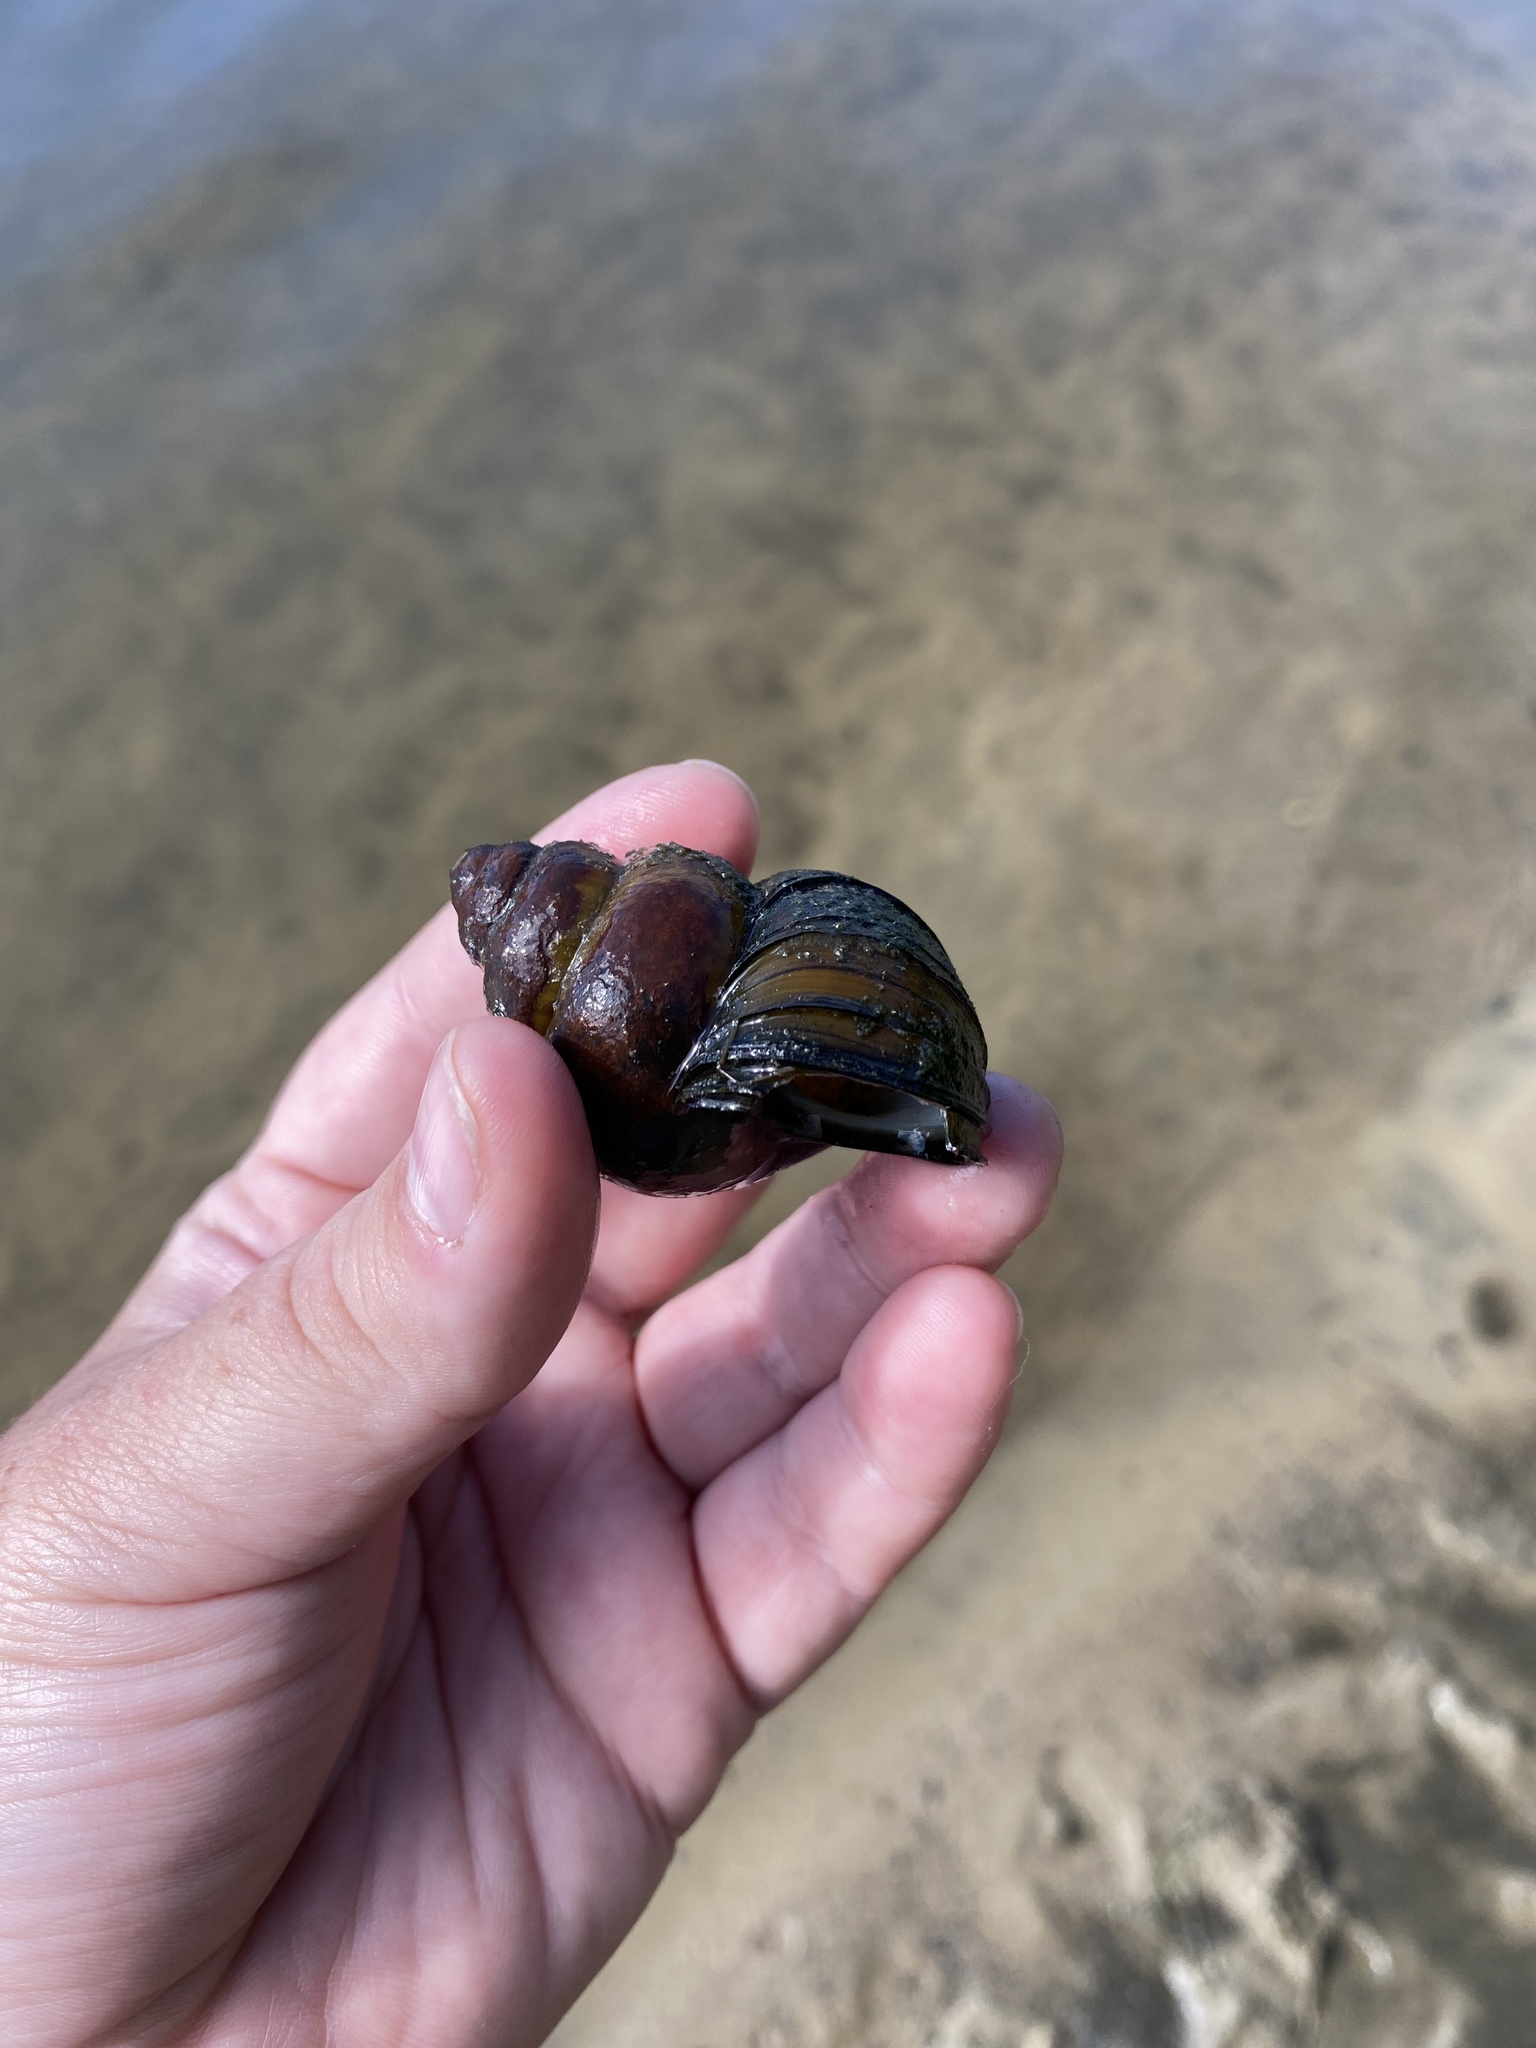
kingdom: Animalia
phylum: Mollusca
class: Gastropoda
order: Architaenioglossa
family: Viviparidae
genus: Cipangopaludina
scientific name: Cipangopaludina chinensis
